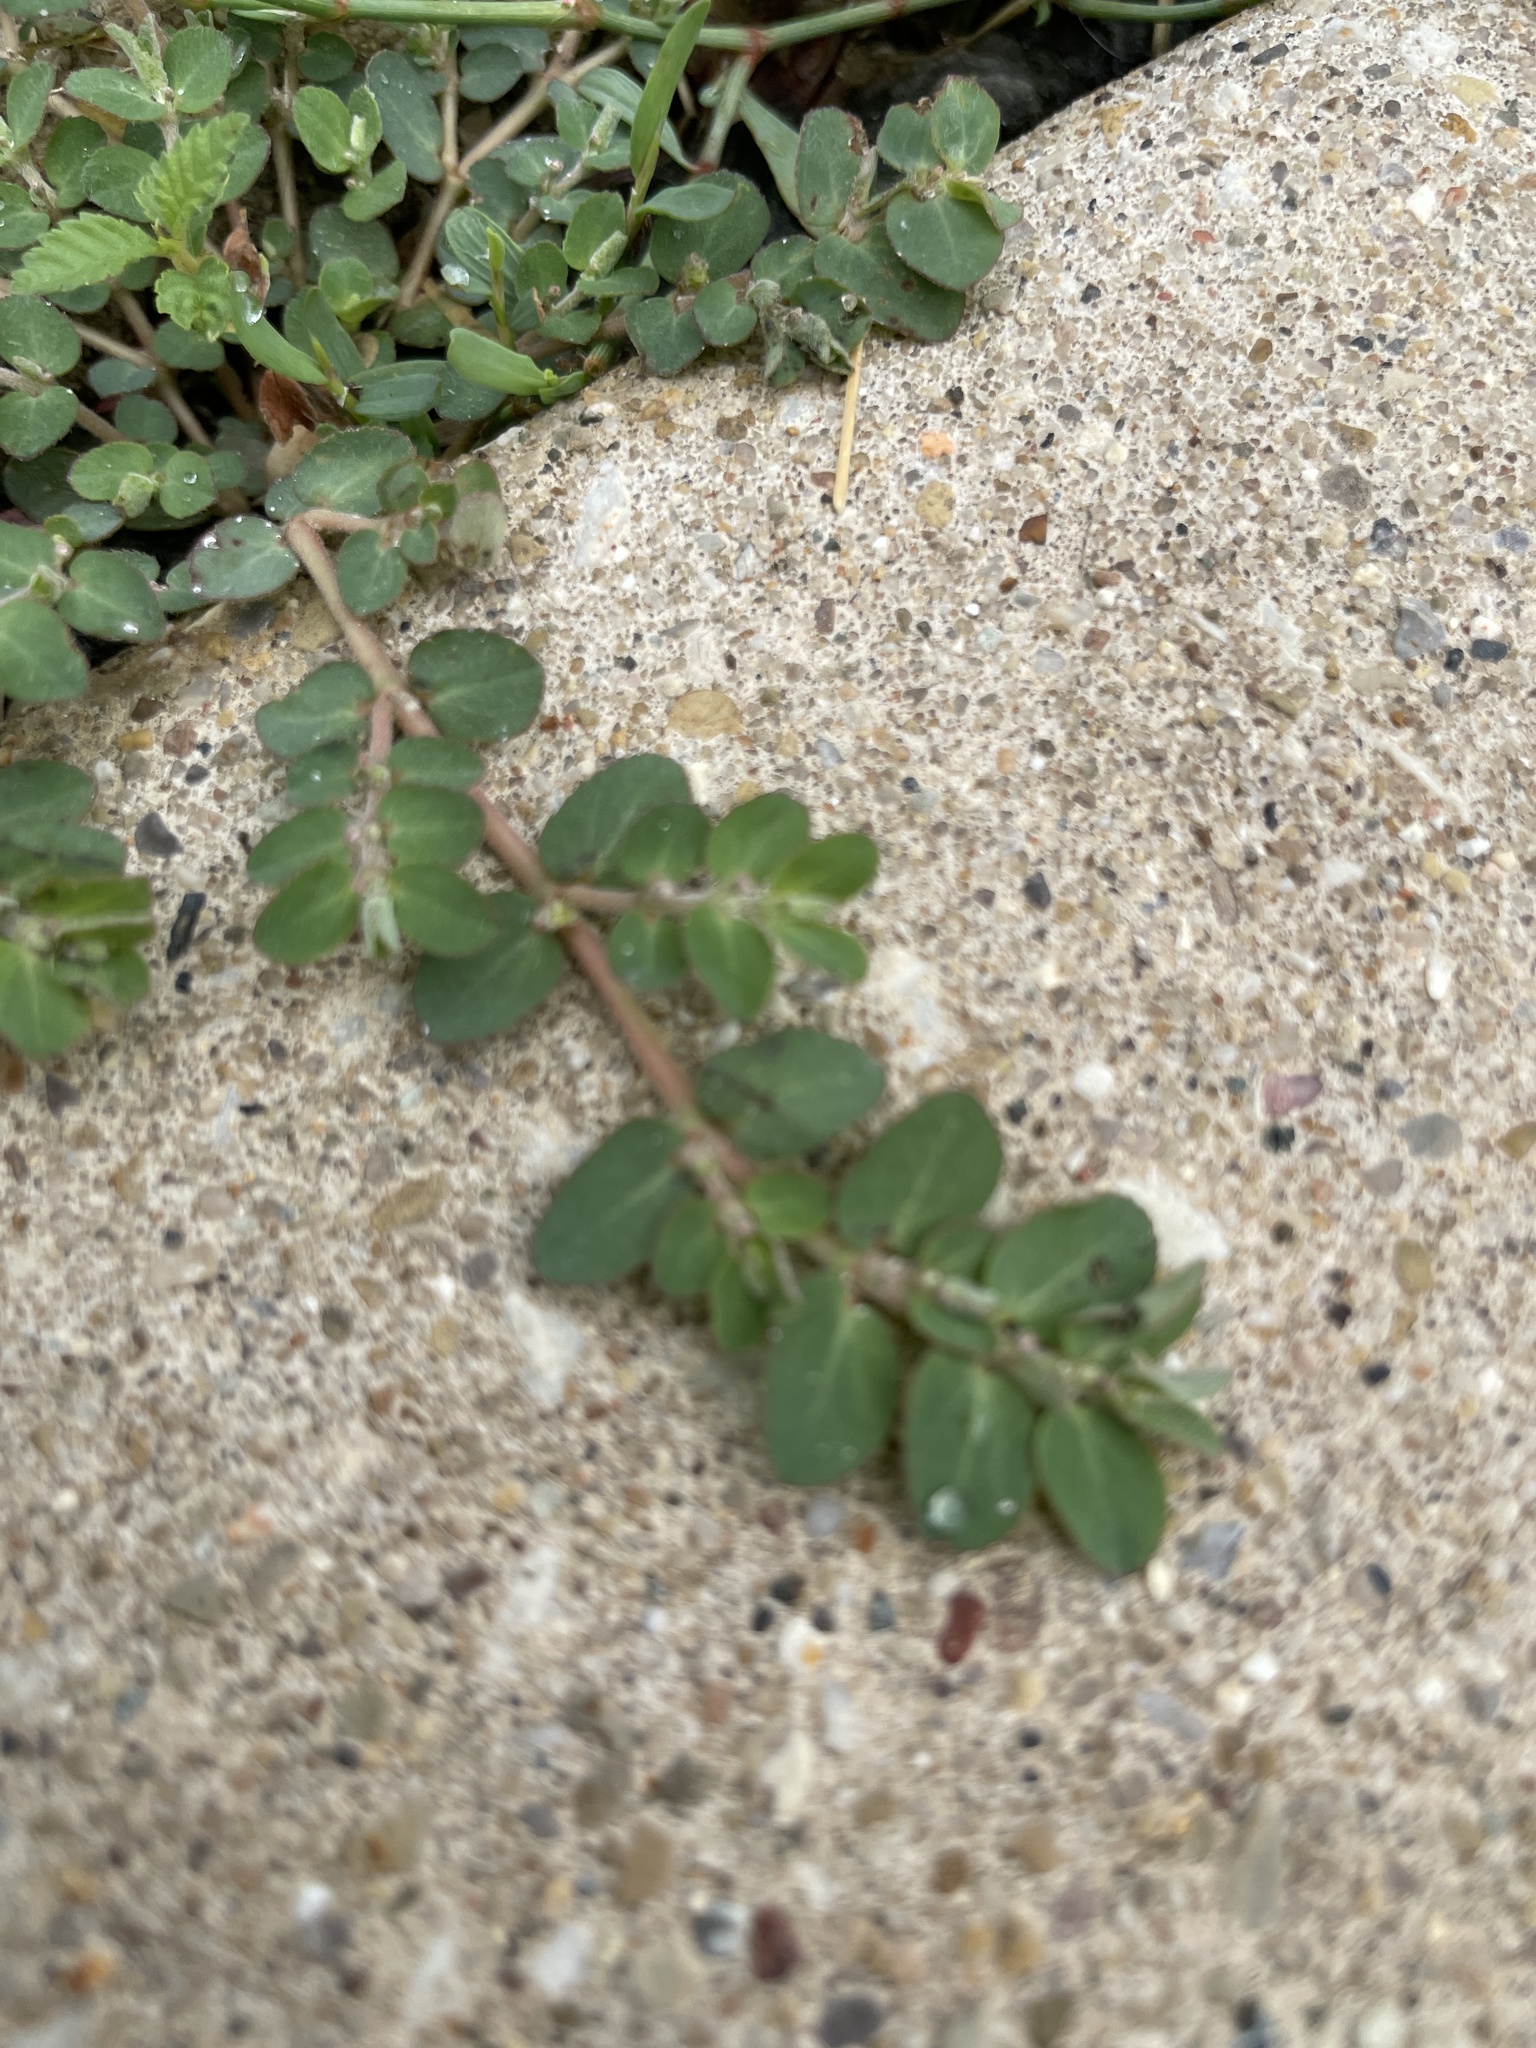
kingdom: Plantae
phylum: Tracheophyta
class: Magnoliopsida
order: Malpighiales
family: Euphorbiaceae
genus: Euphorbia
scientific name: Euphorbia prostrata
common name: Prostrate sandmat
